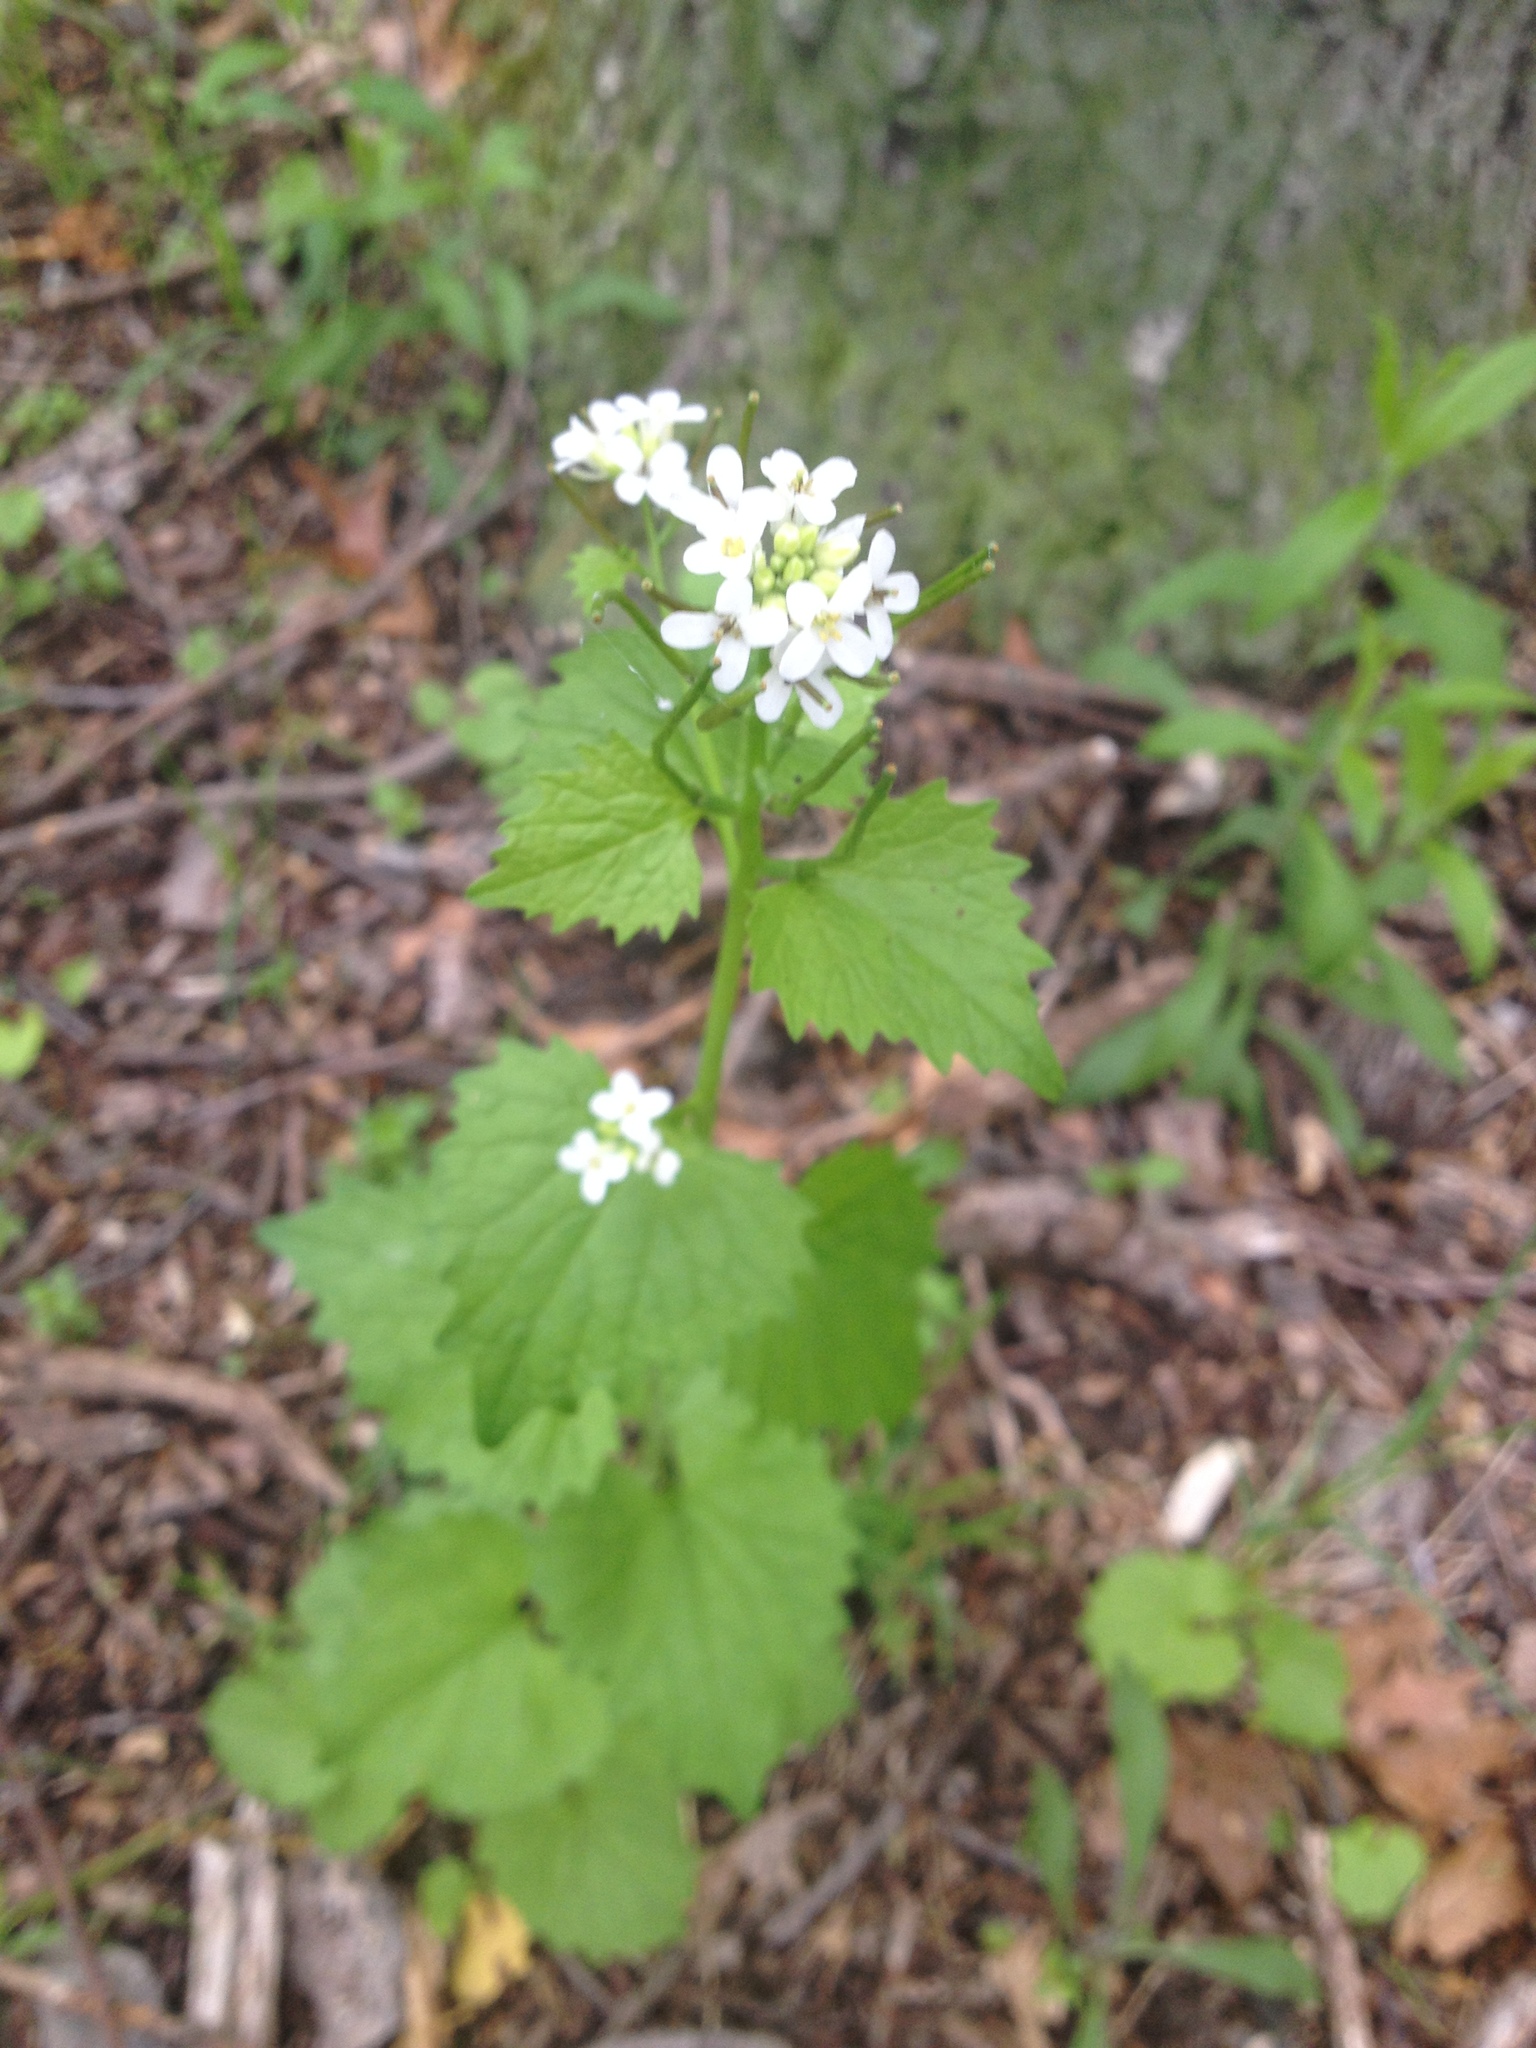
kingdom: Plantae
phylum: Tracheophyta
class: Magnoliopsida
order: Brassicales
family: Brassicaceae
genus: Alliaria
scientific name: Alliaria petiolata
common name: Garlic mustard
